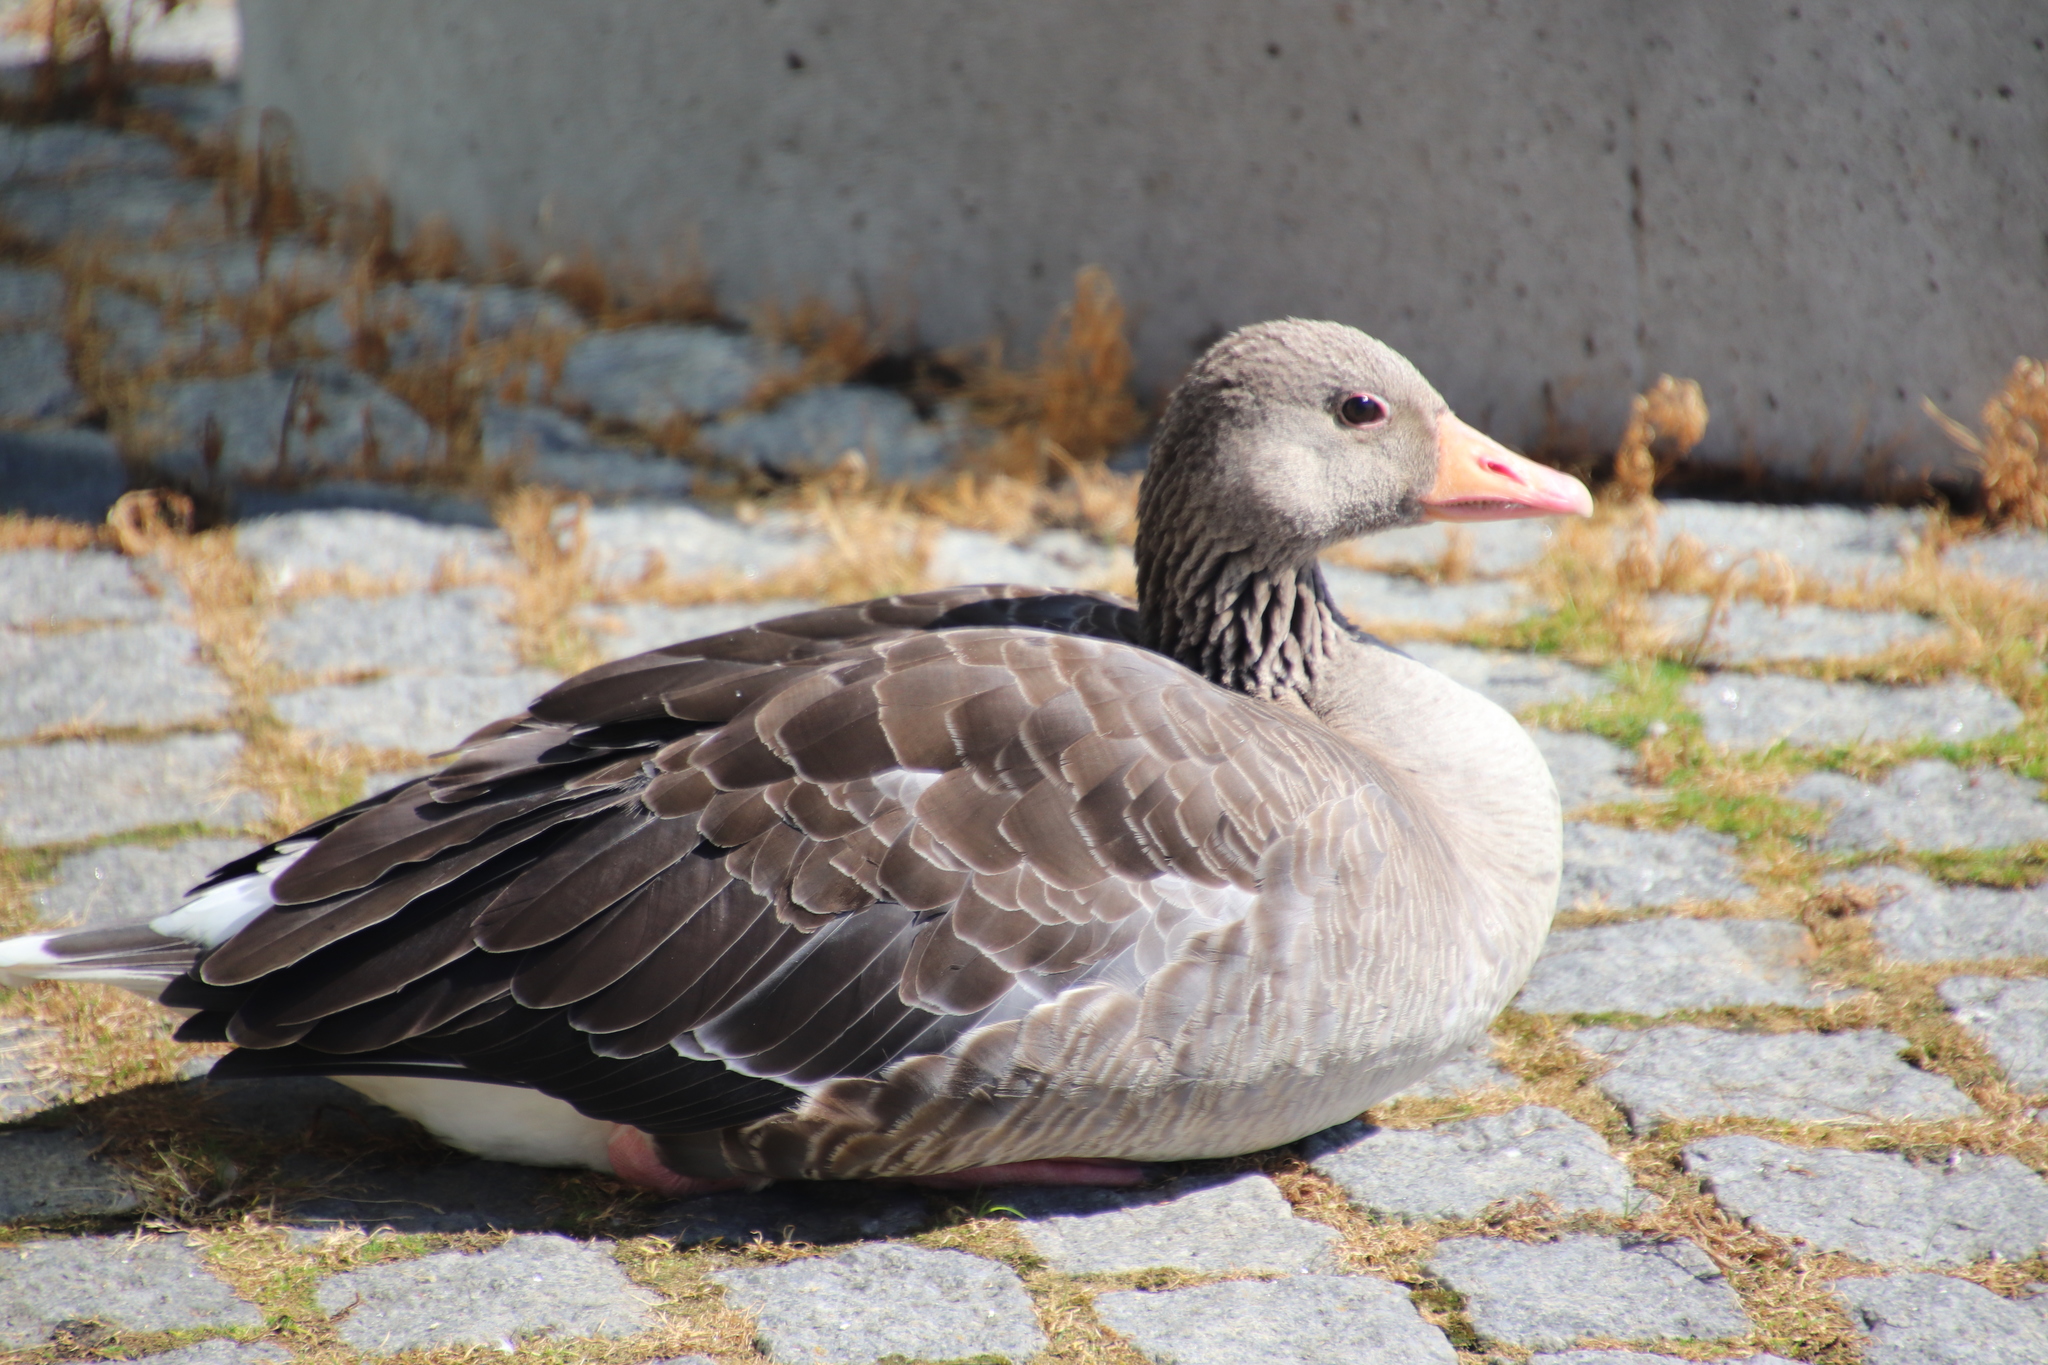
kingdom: Animalia
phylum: Chordata
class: Aves
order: Anseriformes
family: Anatidae
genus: Anser
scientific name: Anser anser
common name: Greylag goose
